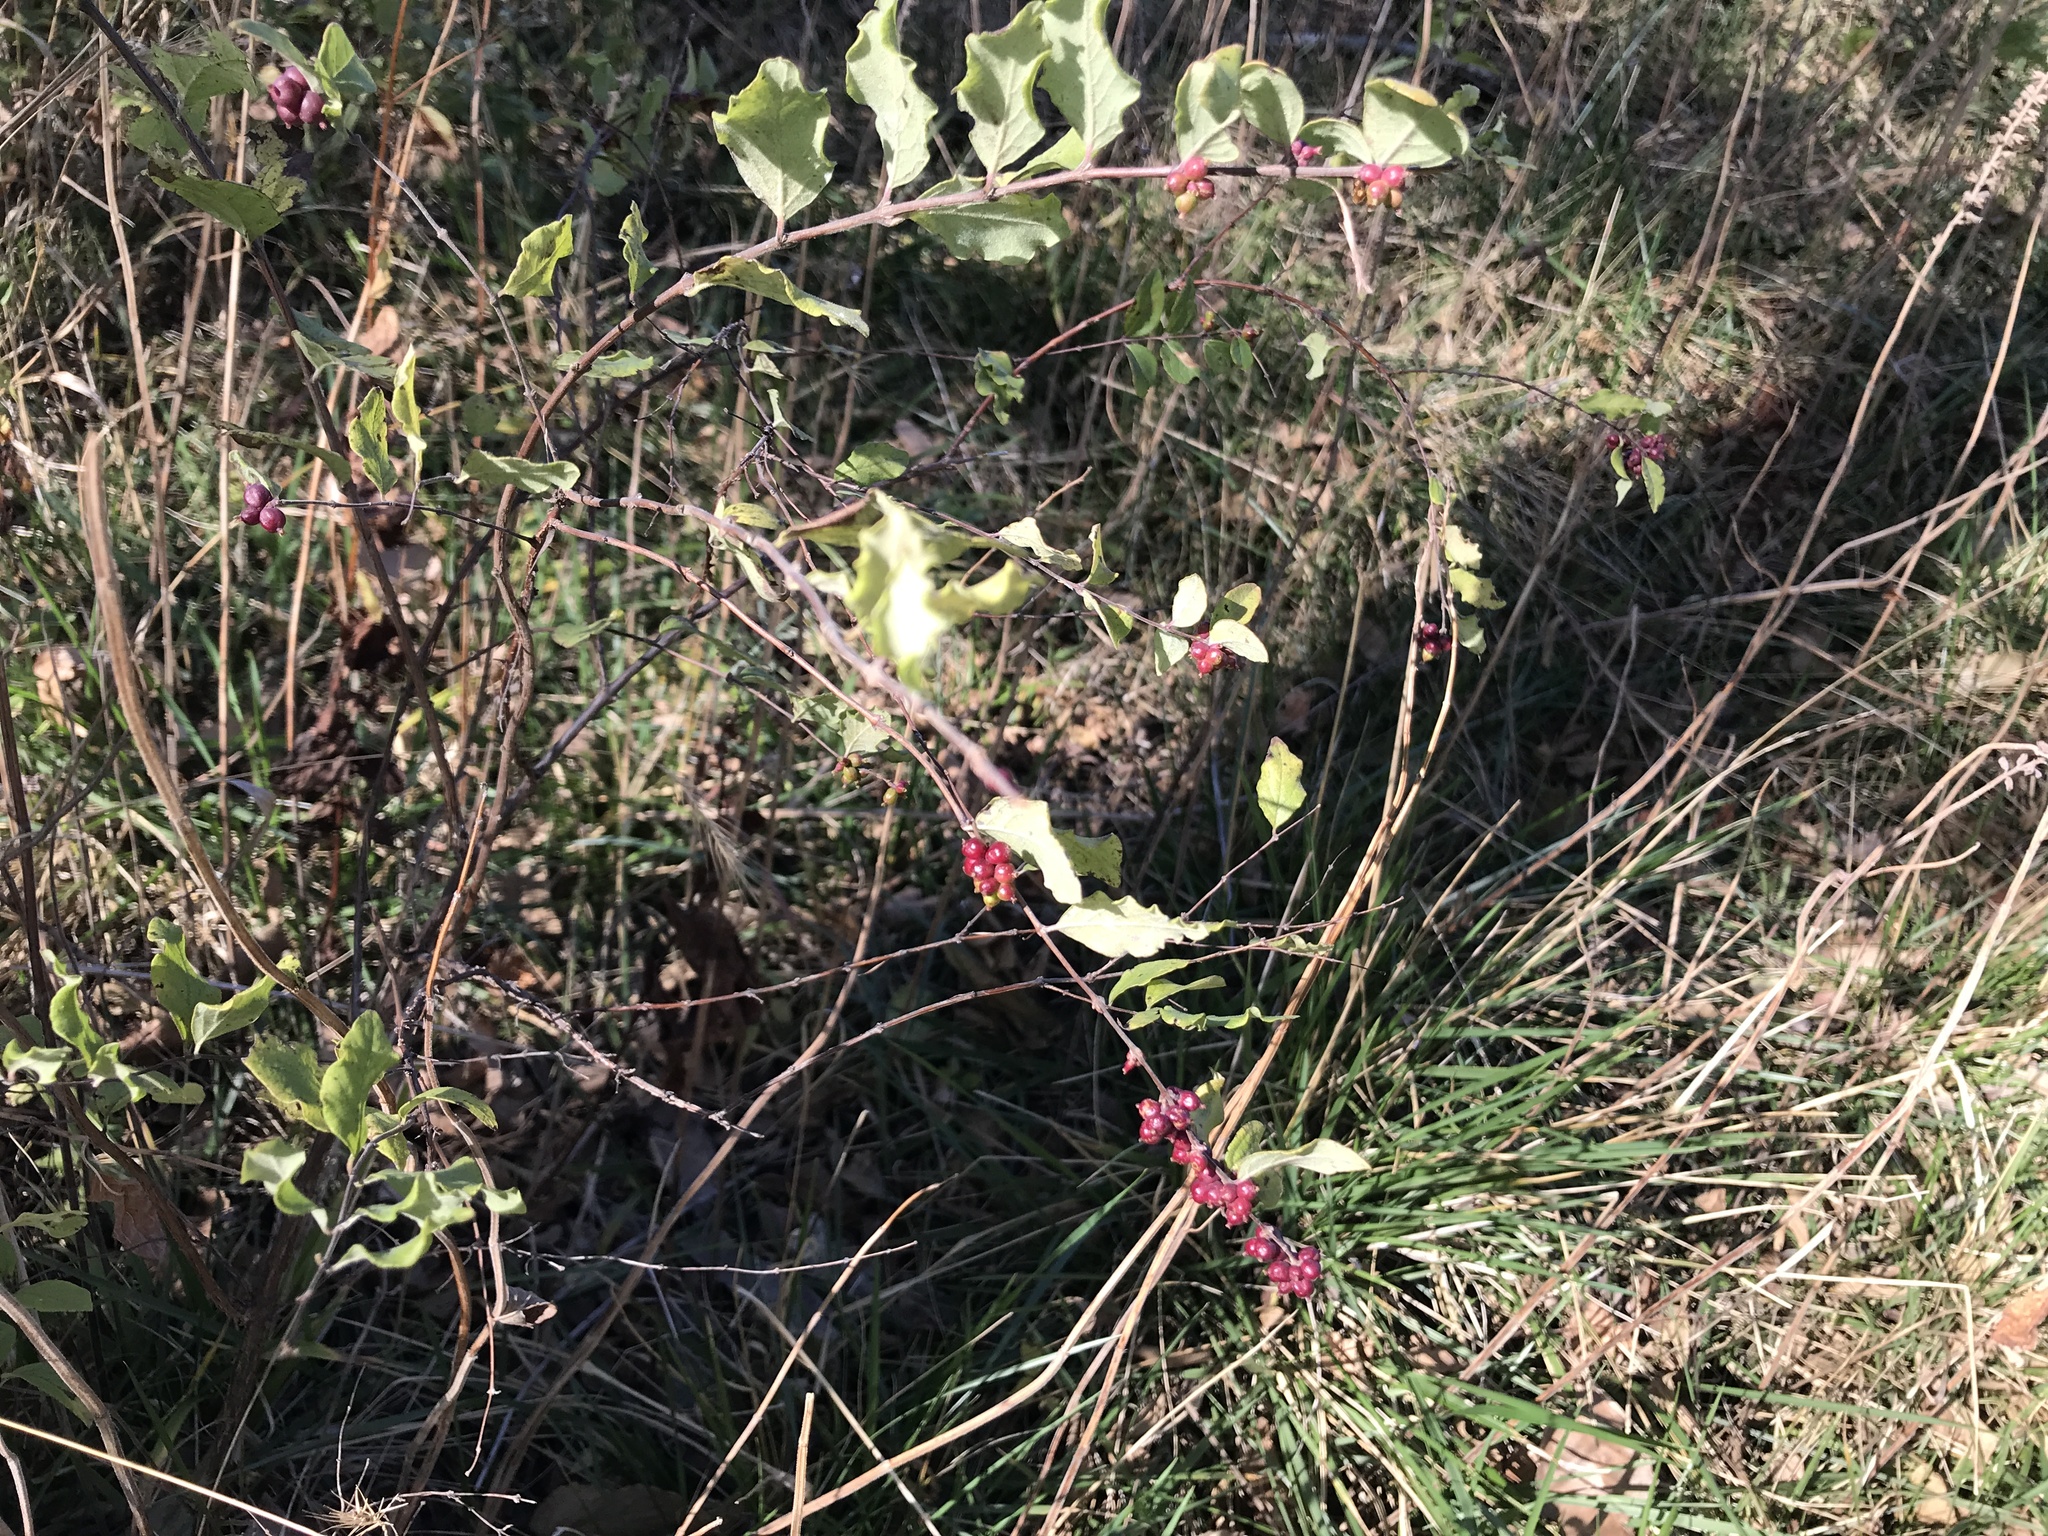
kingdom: Plantae
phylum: Tracheophyta
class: Magnoliopsida
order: Dipsacales
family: Caprifoliaceae
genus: Symphoricarpos
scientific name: Symphoricarpos orbiculatus
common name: Coralberry
